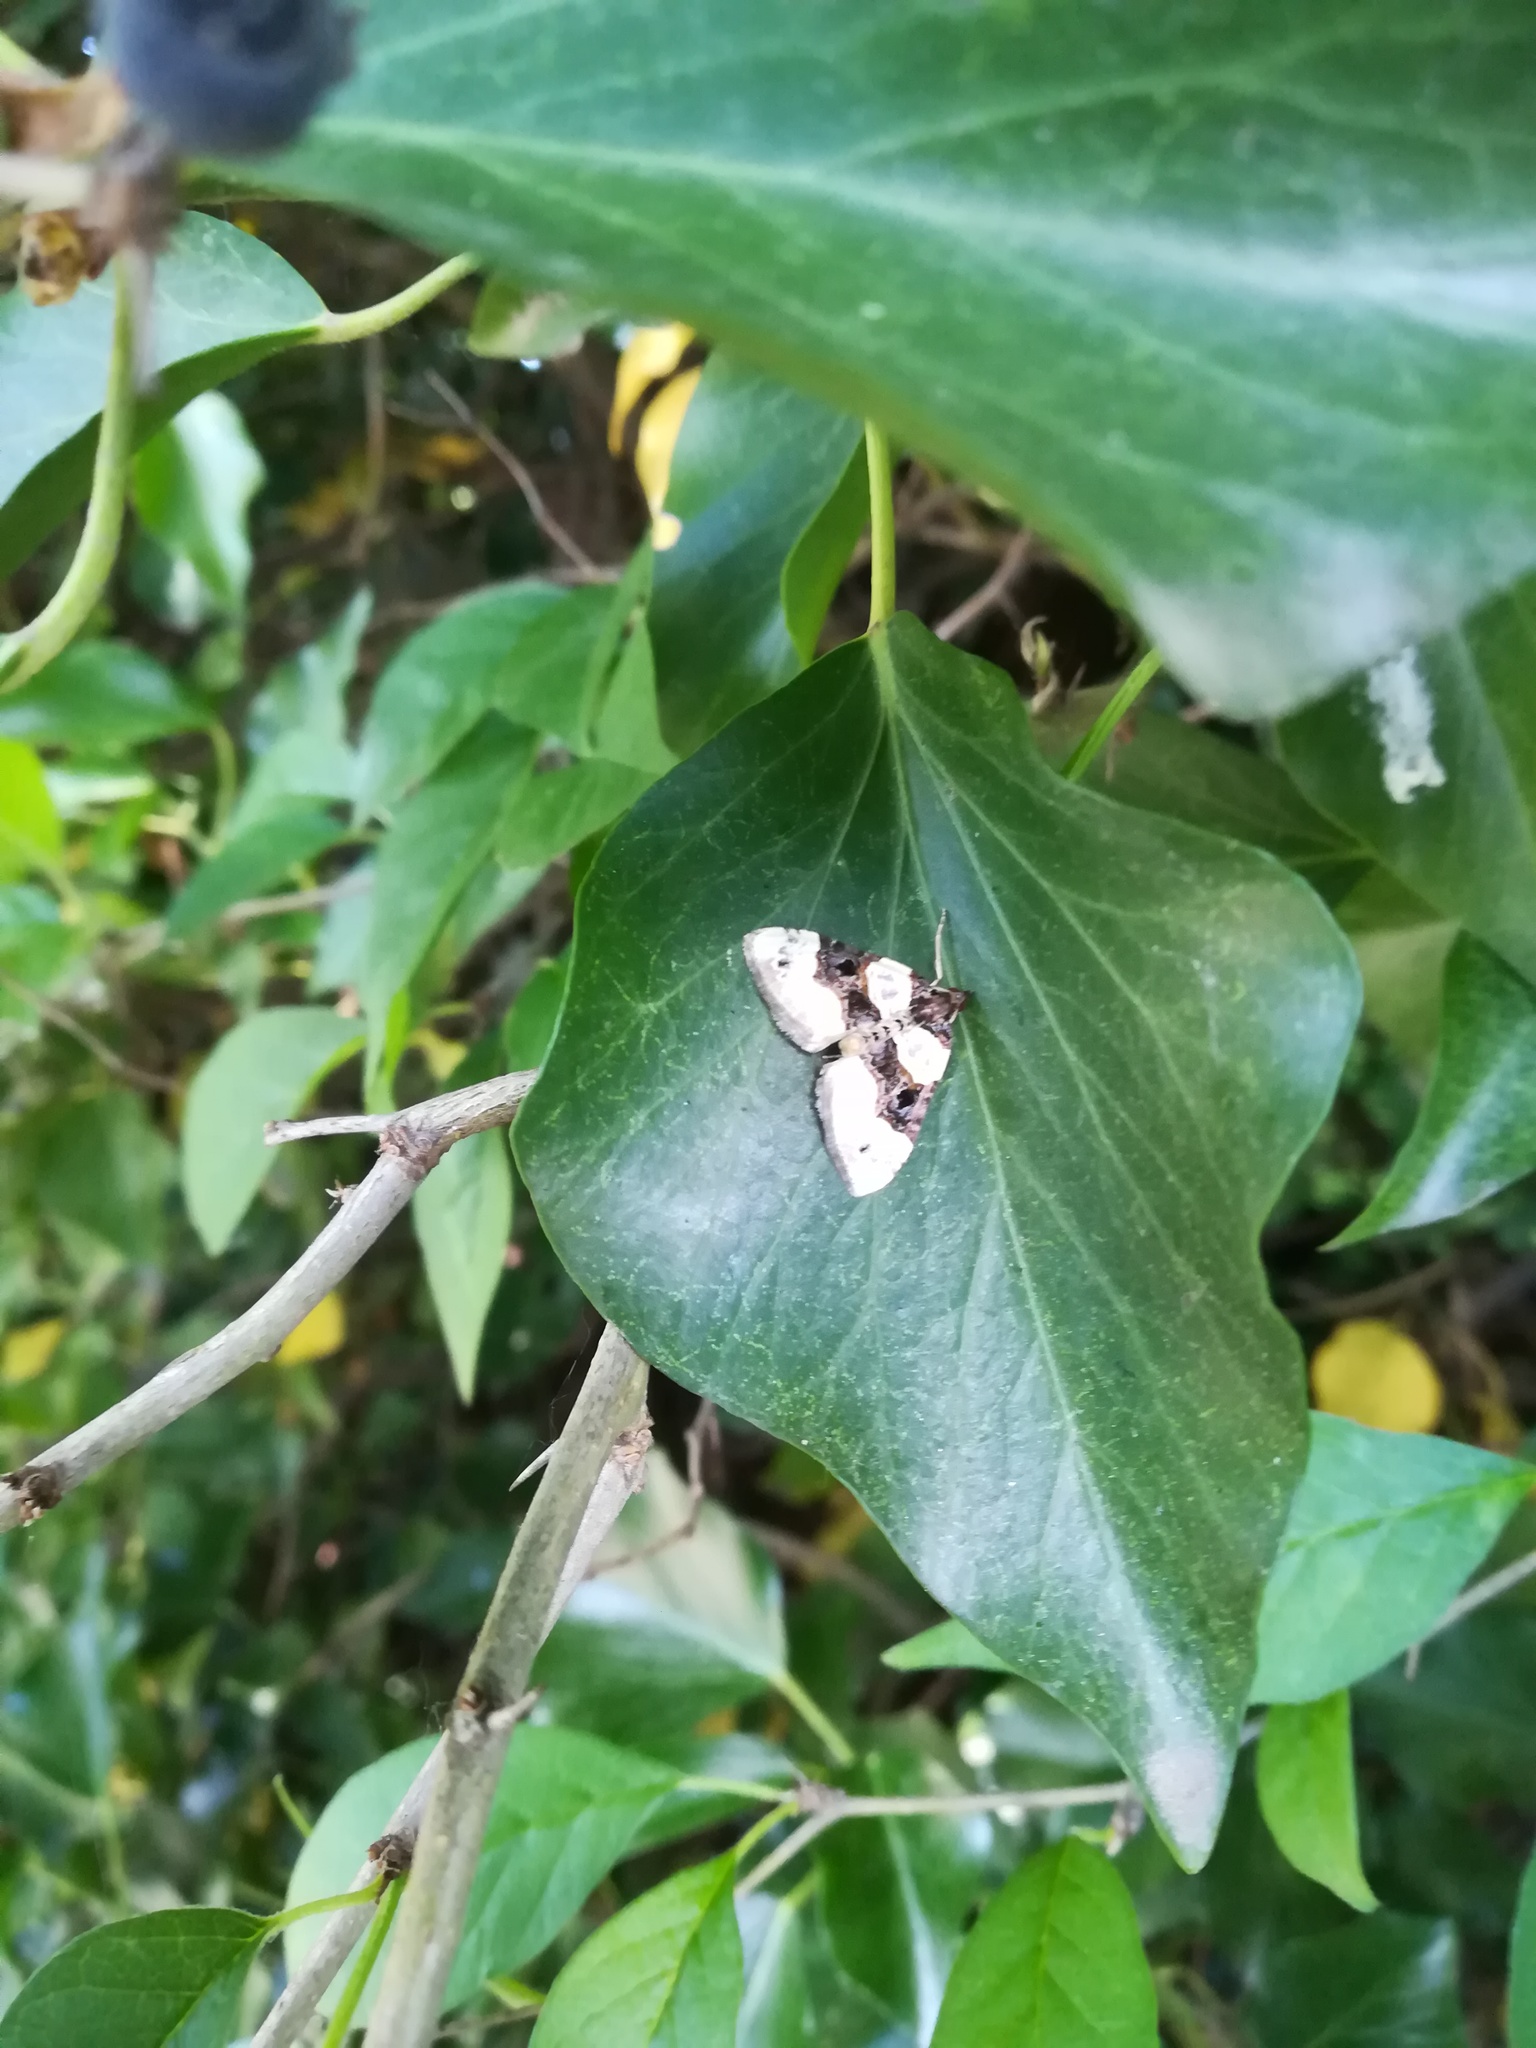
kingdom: Animalia
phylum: Arthropoda
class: Insecta
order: Lepidoptera
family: Geometridae
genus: Cosmorhoe
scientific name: Cosmorhoe ocellata
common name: Purple bar
